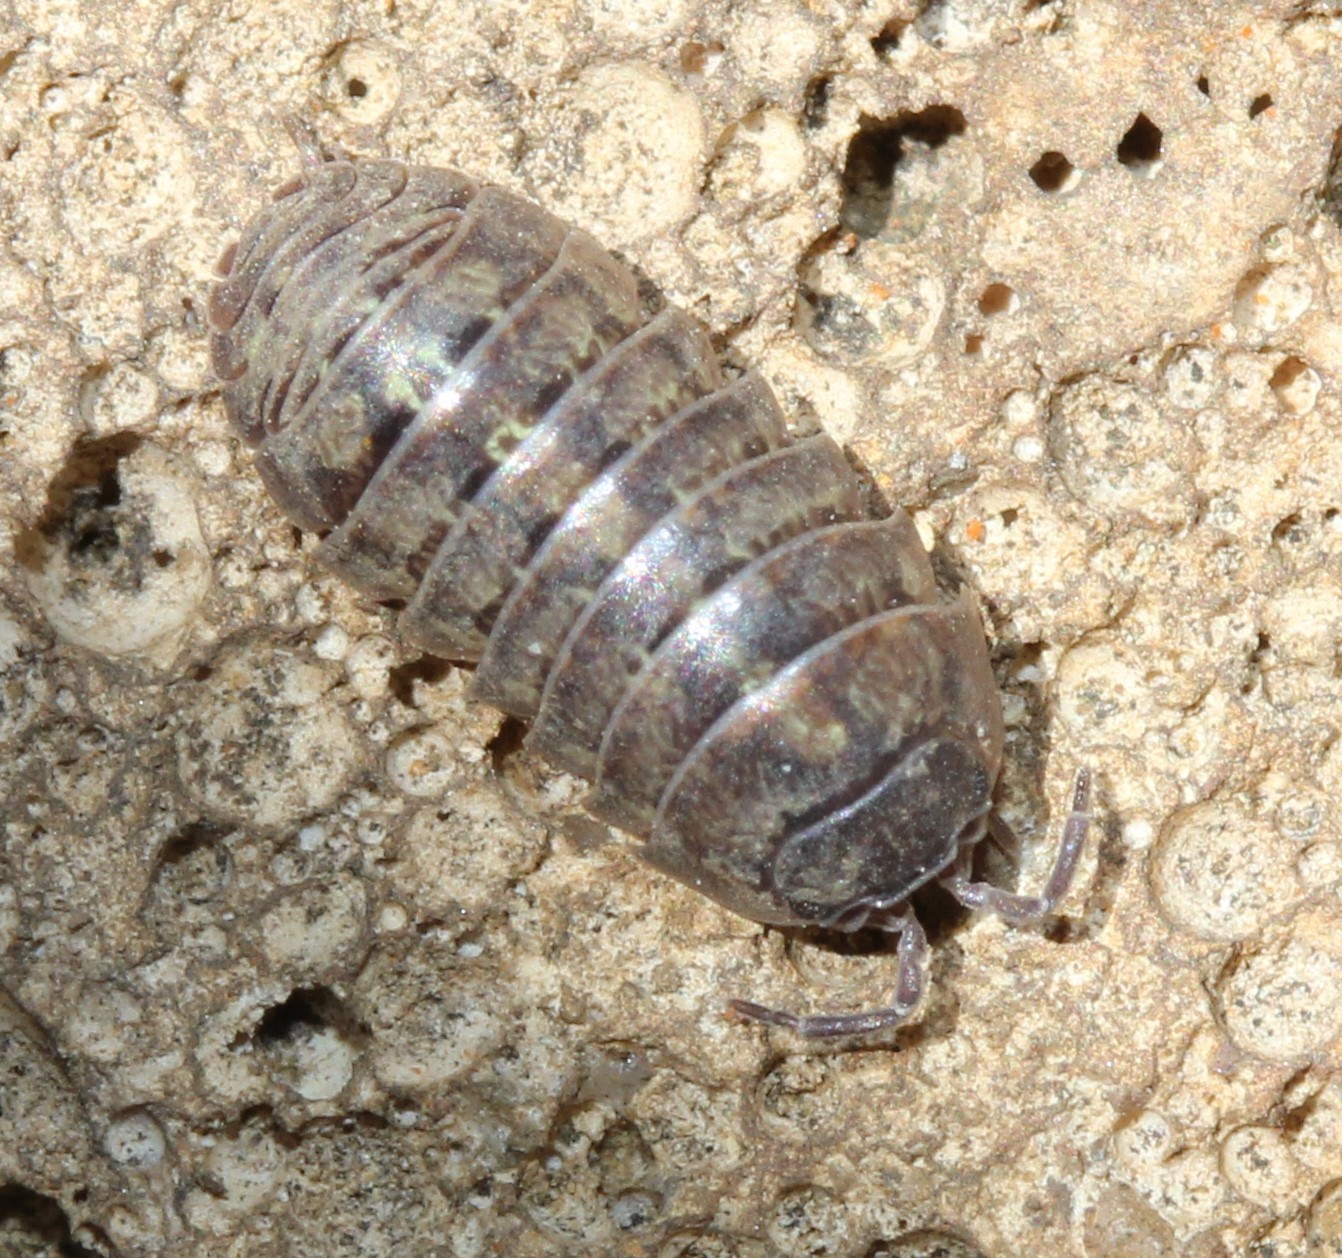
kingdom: Animalia
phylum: Arthropoda
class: Malacostraca
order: Isopoda
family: Armadillidiidae
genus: Armadillidium
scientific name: Armadillidium vulgare
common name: Common pill woodlouse
